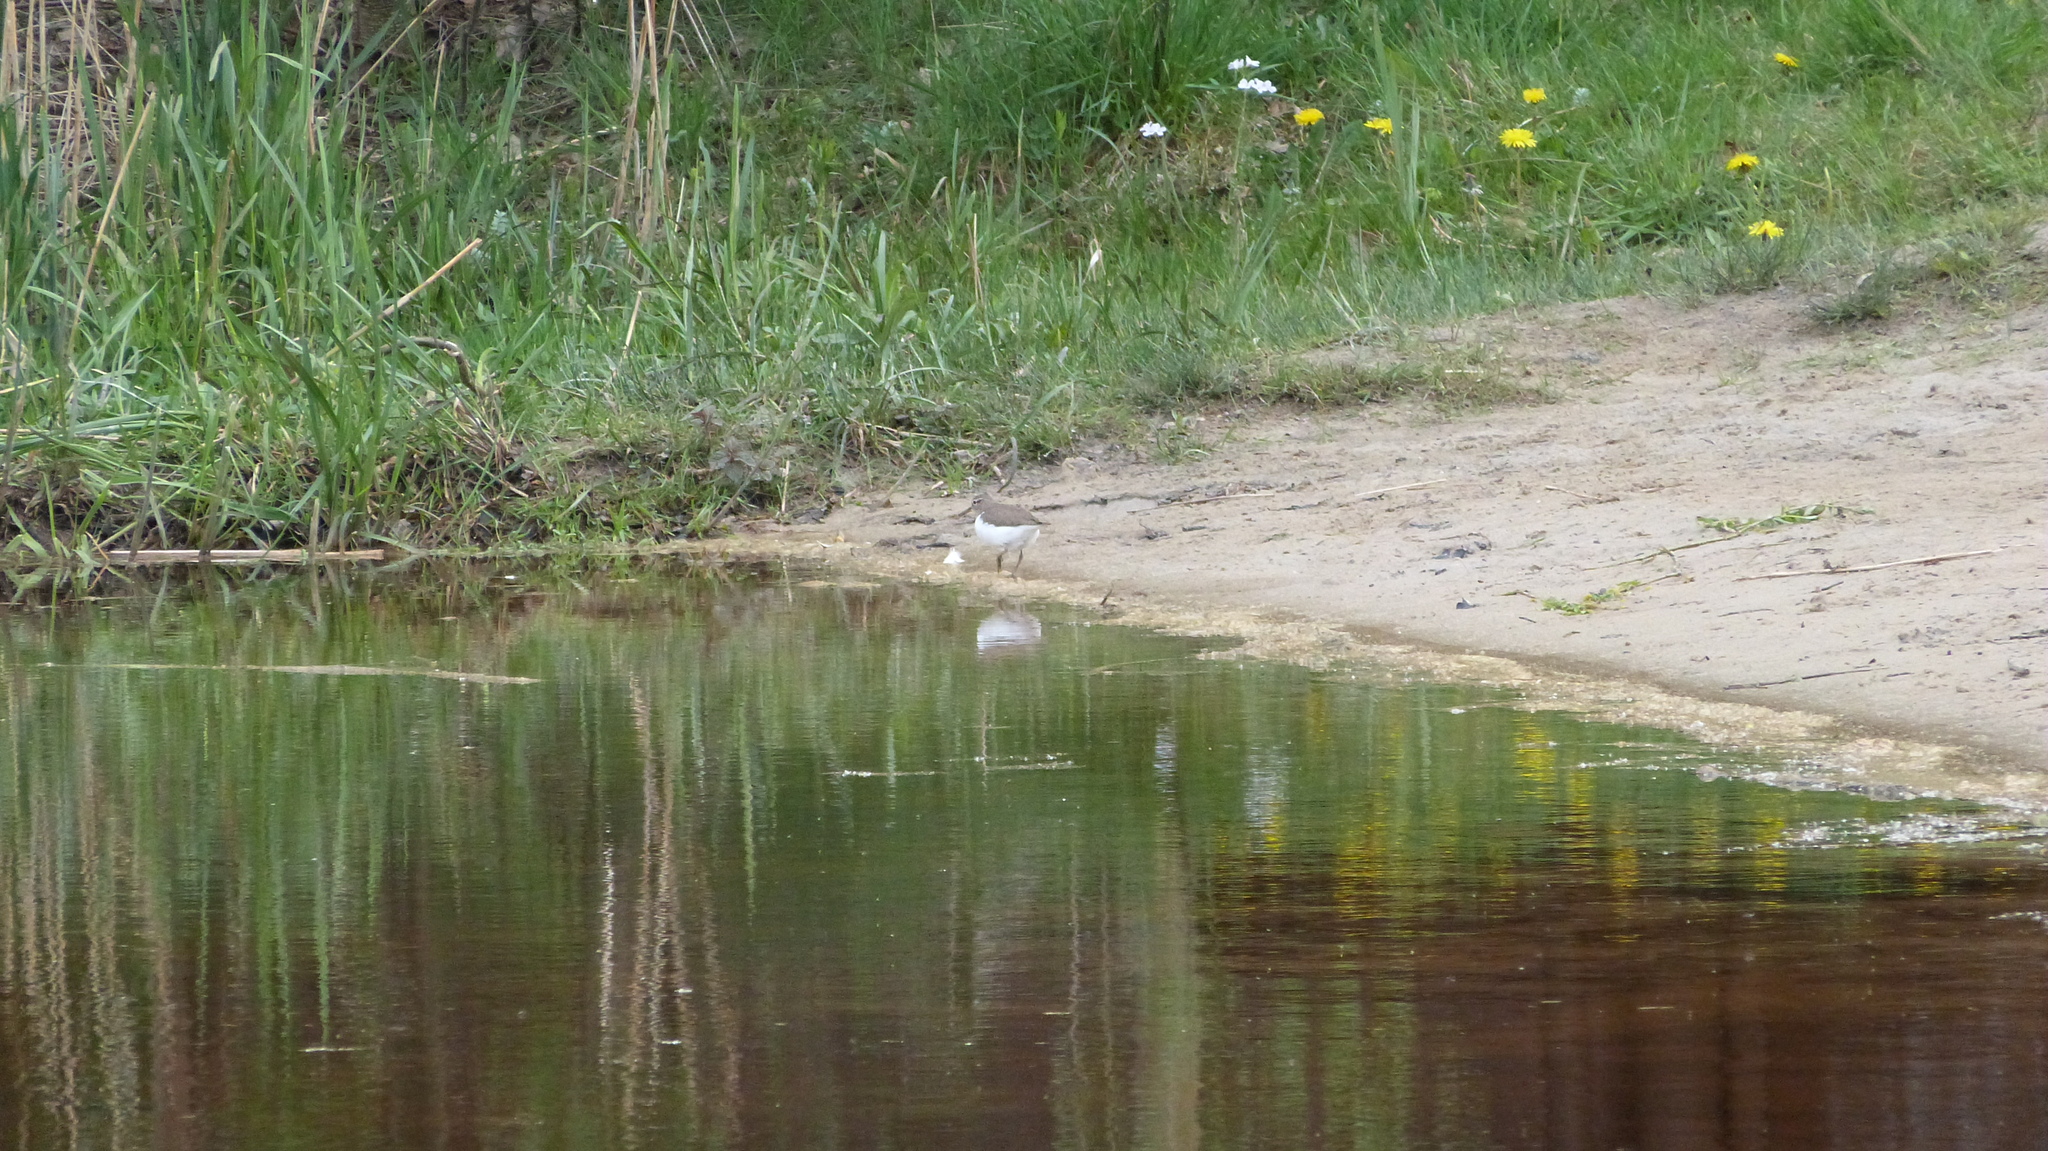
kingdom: Animalia
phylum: Chordata
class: Aves
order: Charadriiformes
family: Scolopacidae
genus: Actitis
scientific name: Actitis hypoleucos
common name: Common sandpiper
